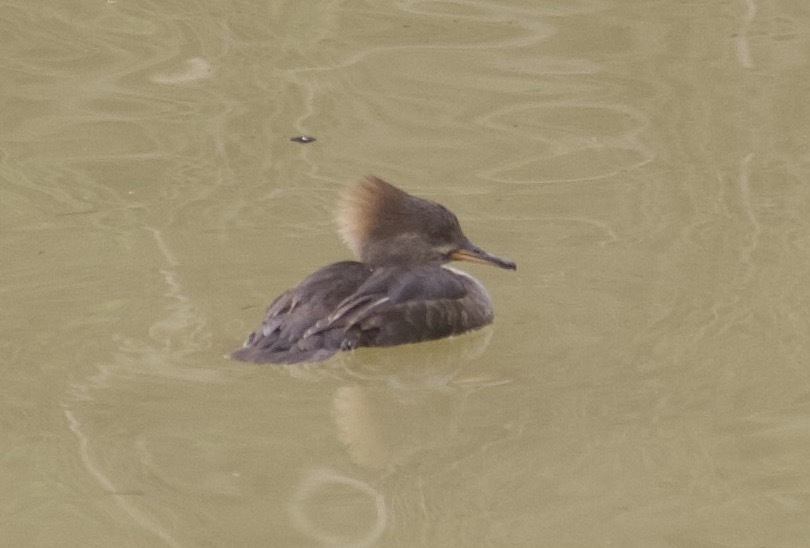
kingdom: Animalia
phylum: Chordata
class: Aves
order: Anseriformes
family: Anatidae
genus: Lophodytes
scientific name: Lophodytes cucullatus
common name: Hooded merganser
